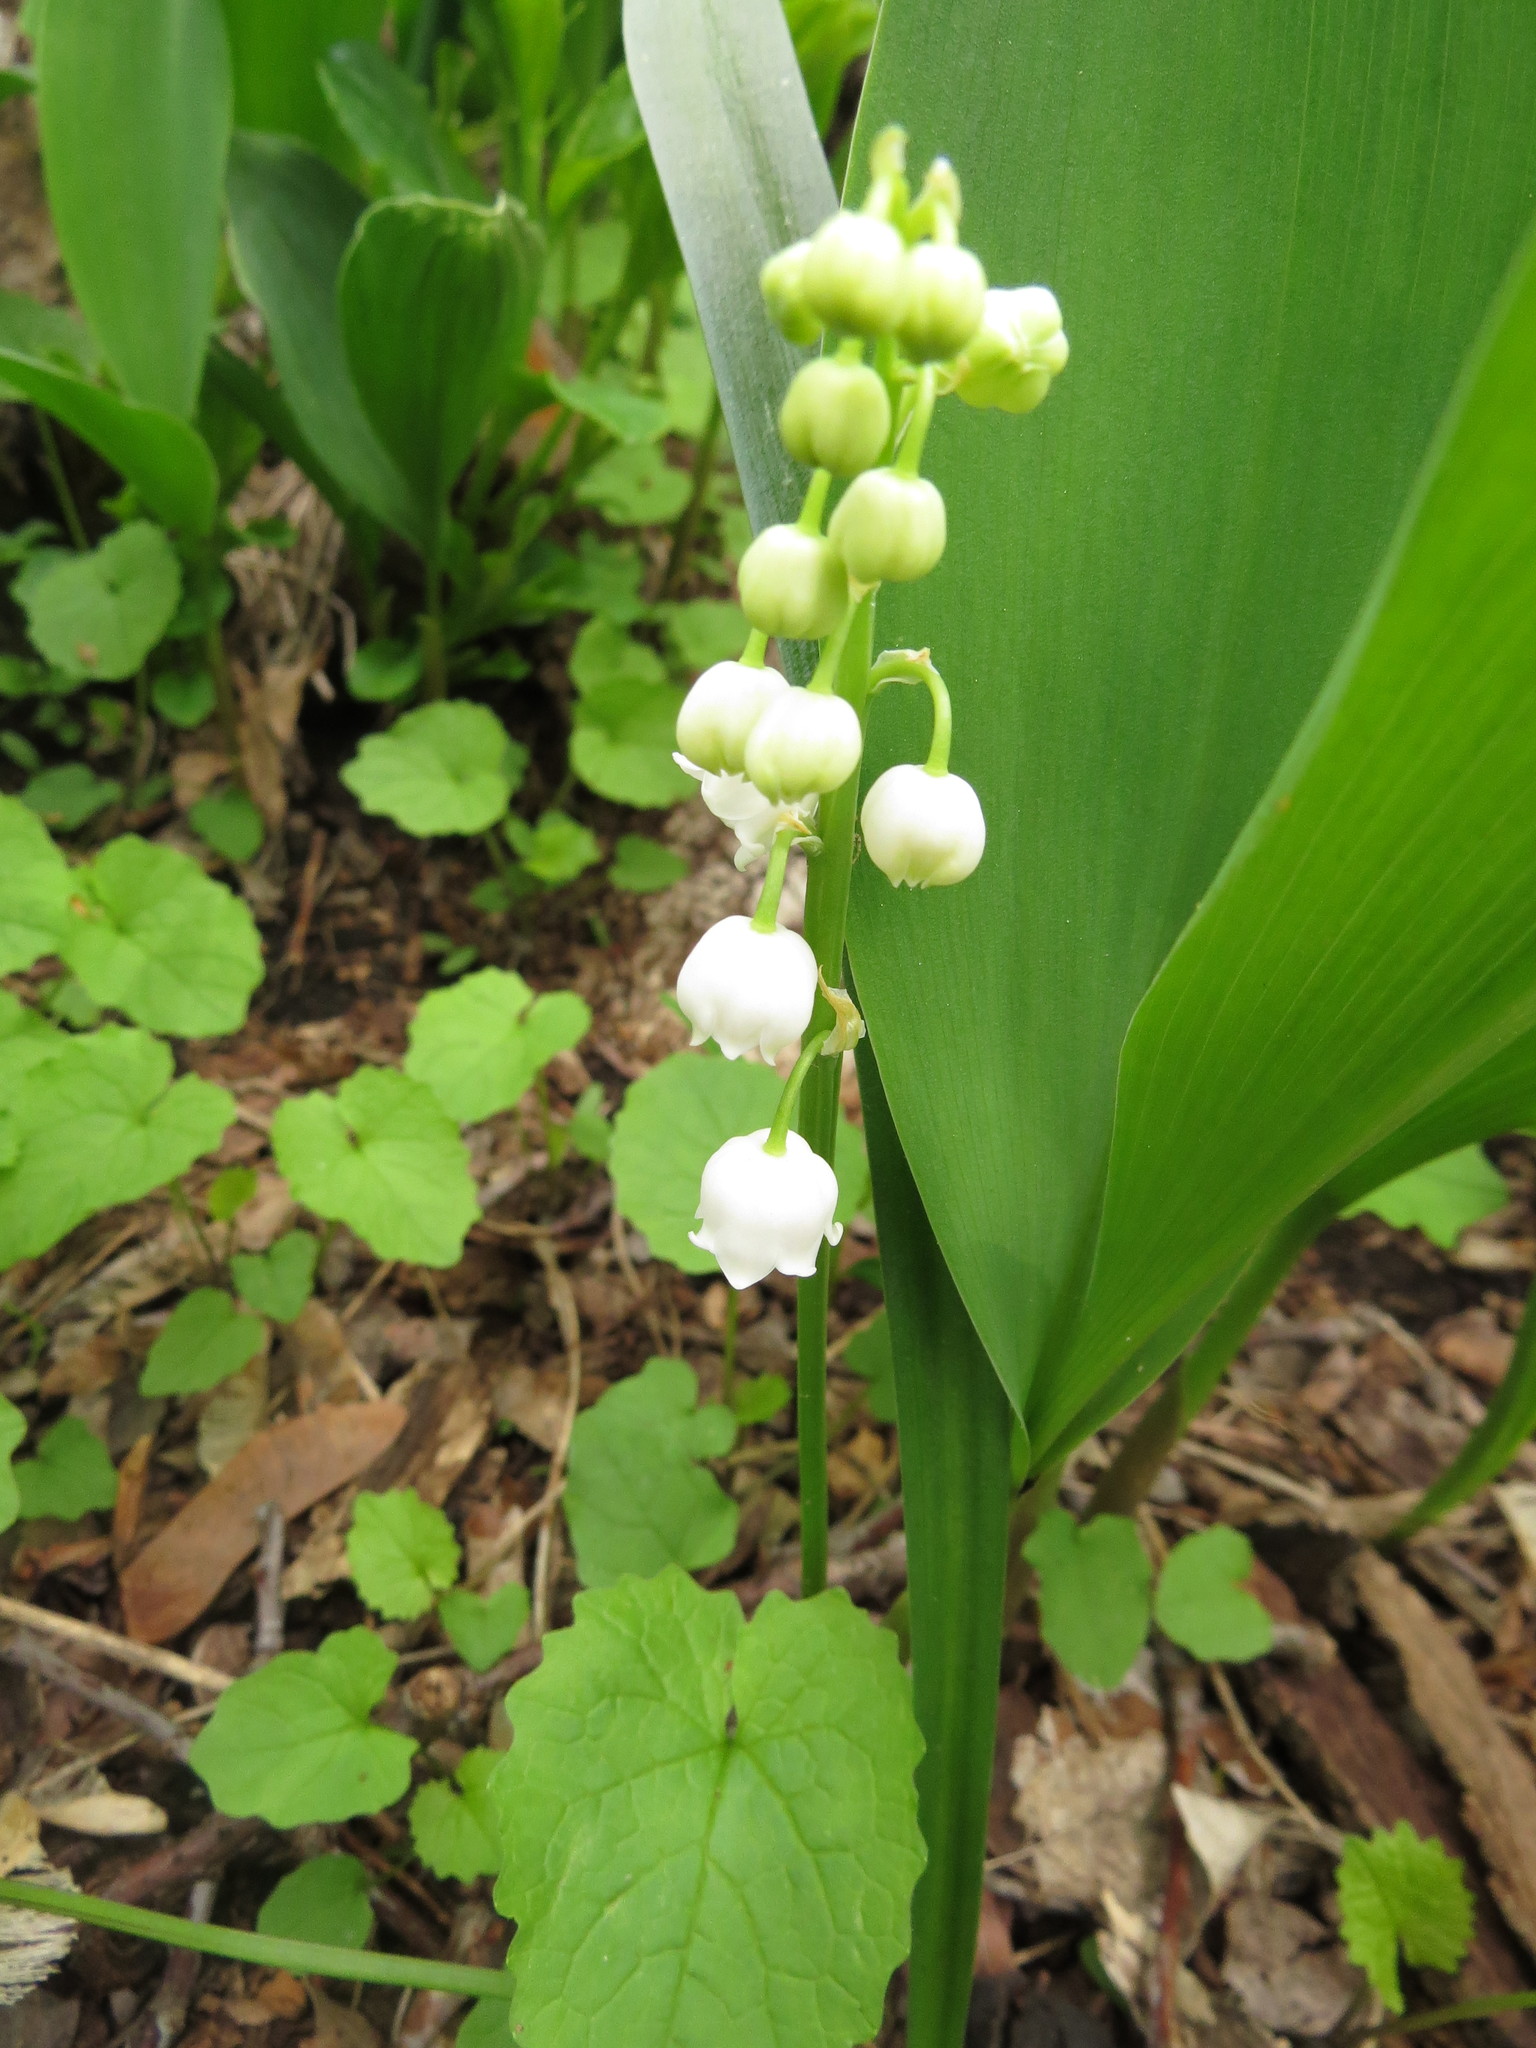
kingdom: Plantae
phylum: Tracheophyta
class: Liliopsida
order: Asparagales
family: Asparagaceae
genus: Convallaria
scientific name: Convallaria majalis
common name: Lily-of-the-valley
